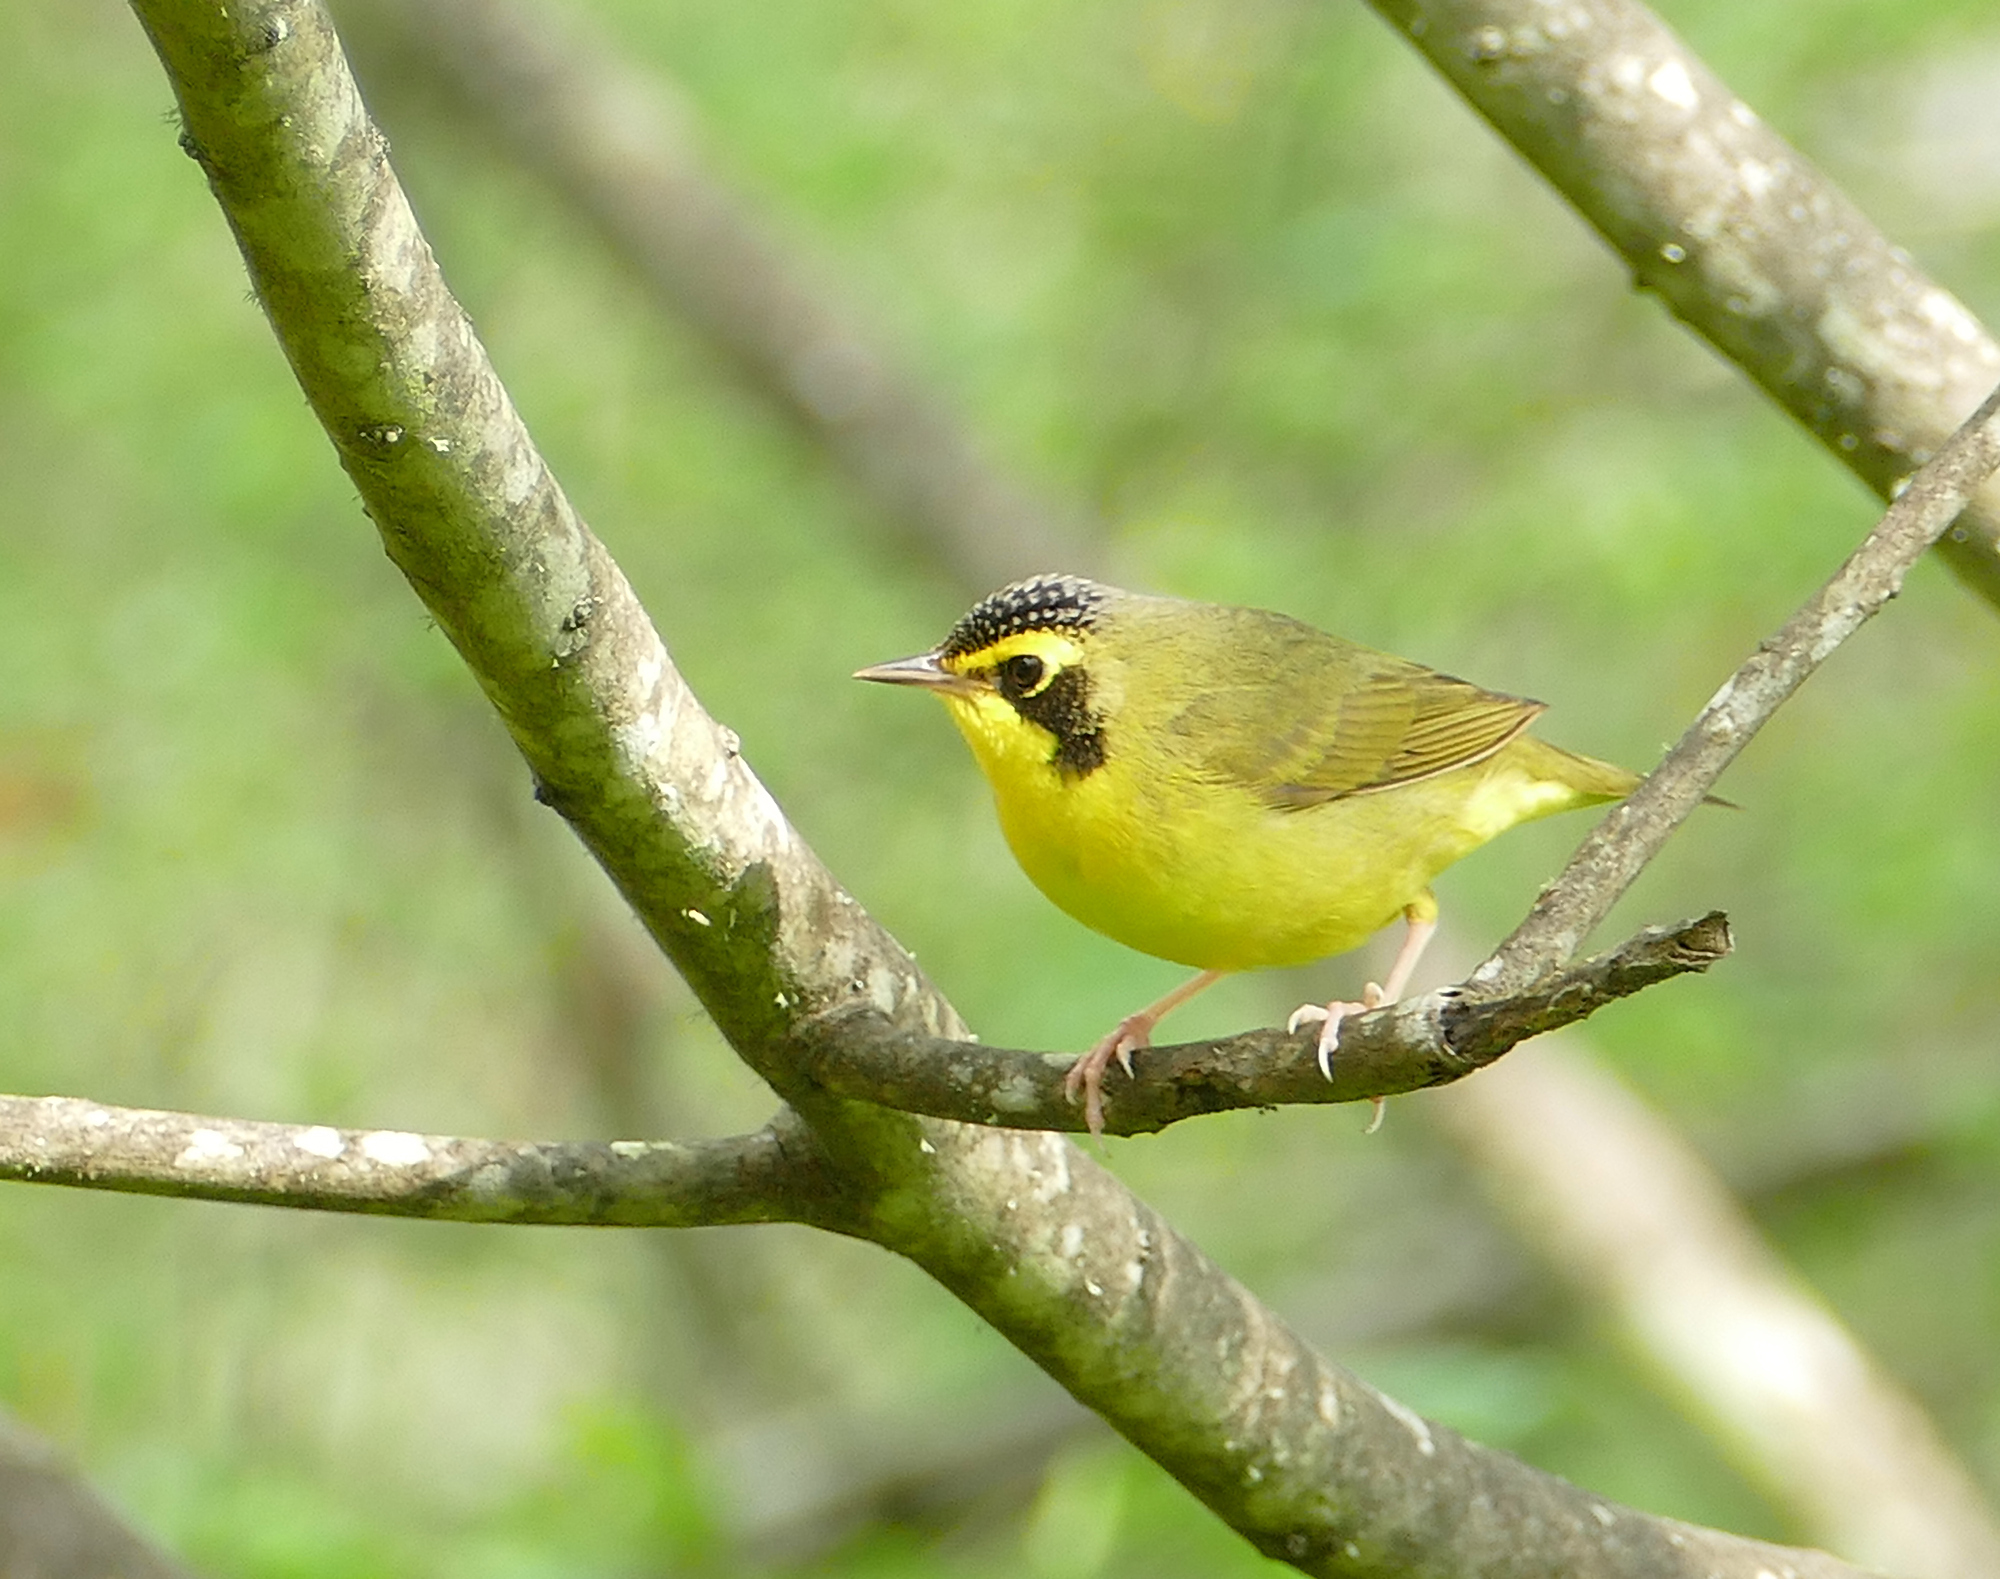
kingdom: Animalia
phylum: Chordata
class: Aves
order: Passeriformes
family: Parulidae
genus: Geothlypis
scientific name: Geothlypis formosa
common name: Kentucky warbler
